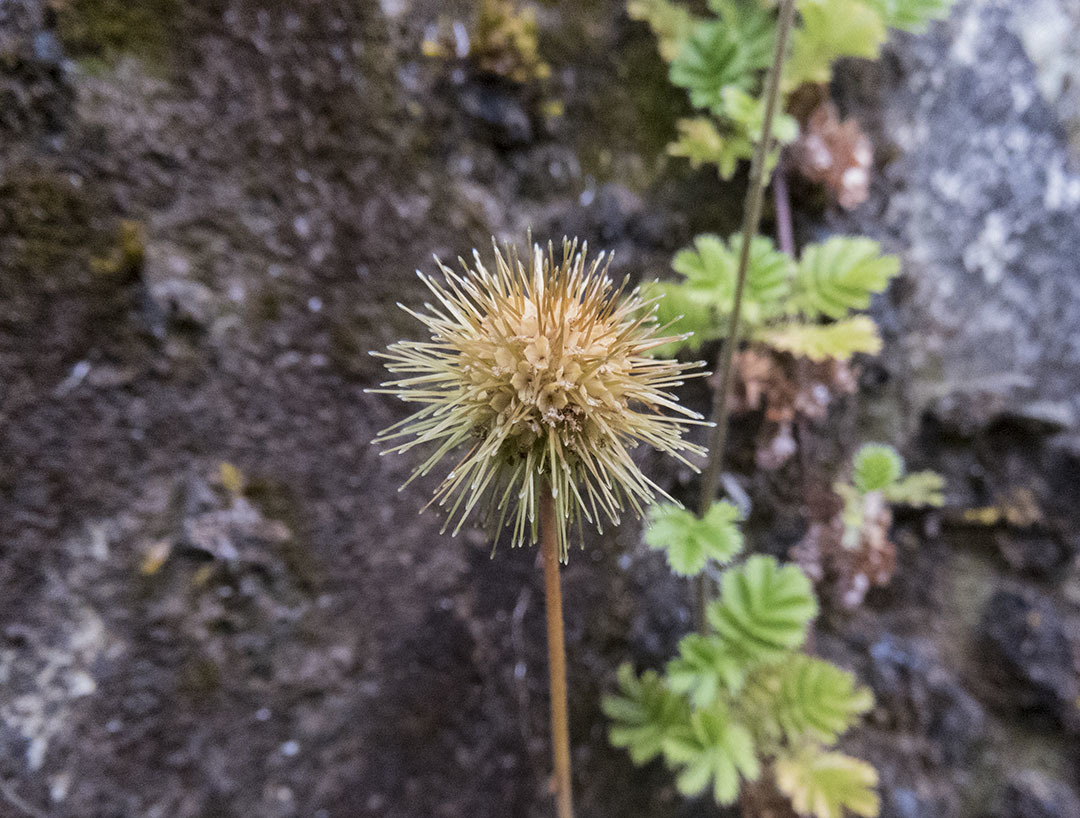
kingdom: Plantae
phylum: Tracheophyta
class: Magnoliopsida
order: Rosales
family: Rosaceae
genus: Acaena
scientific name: Acaena anserinifolia
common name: Bronze pirri-pirri-bur
